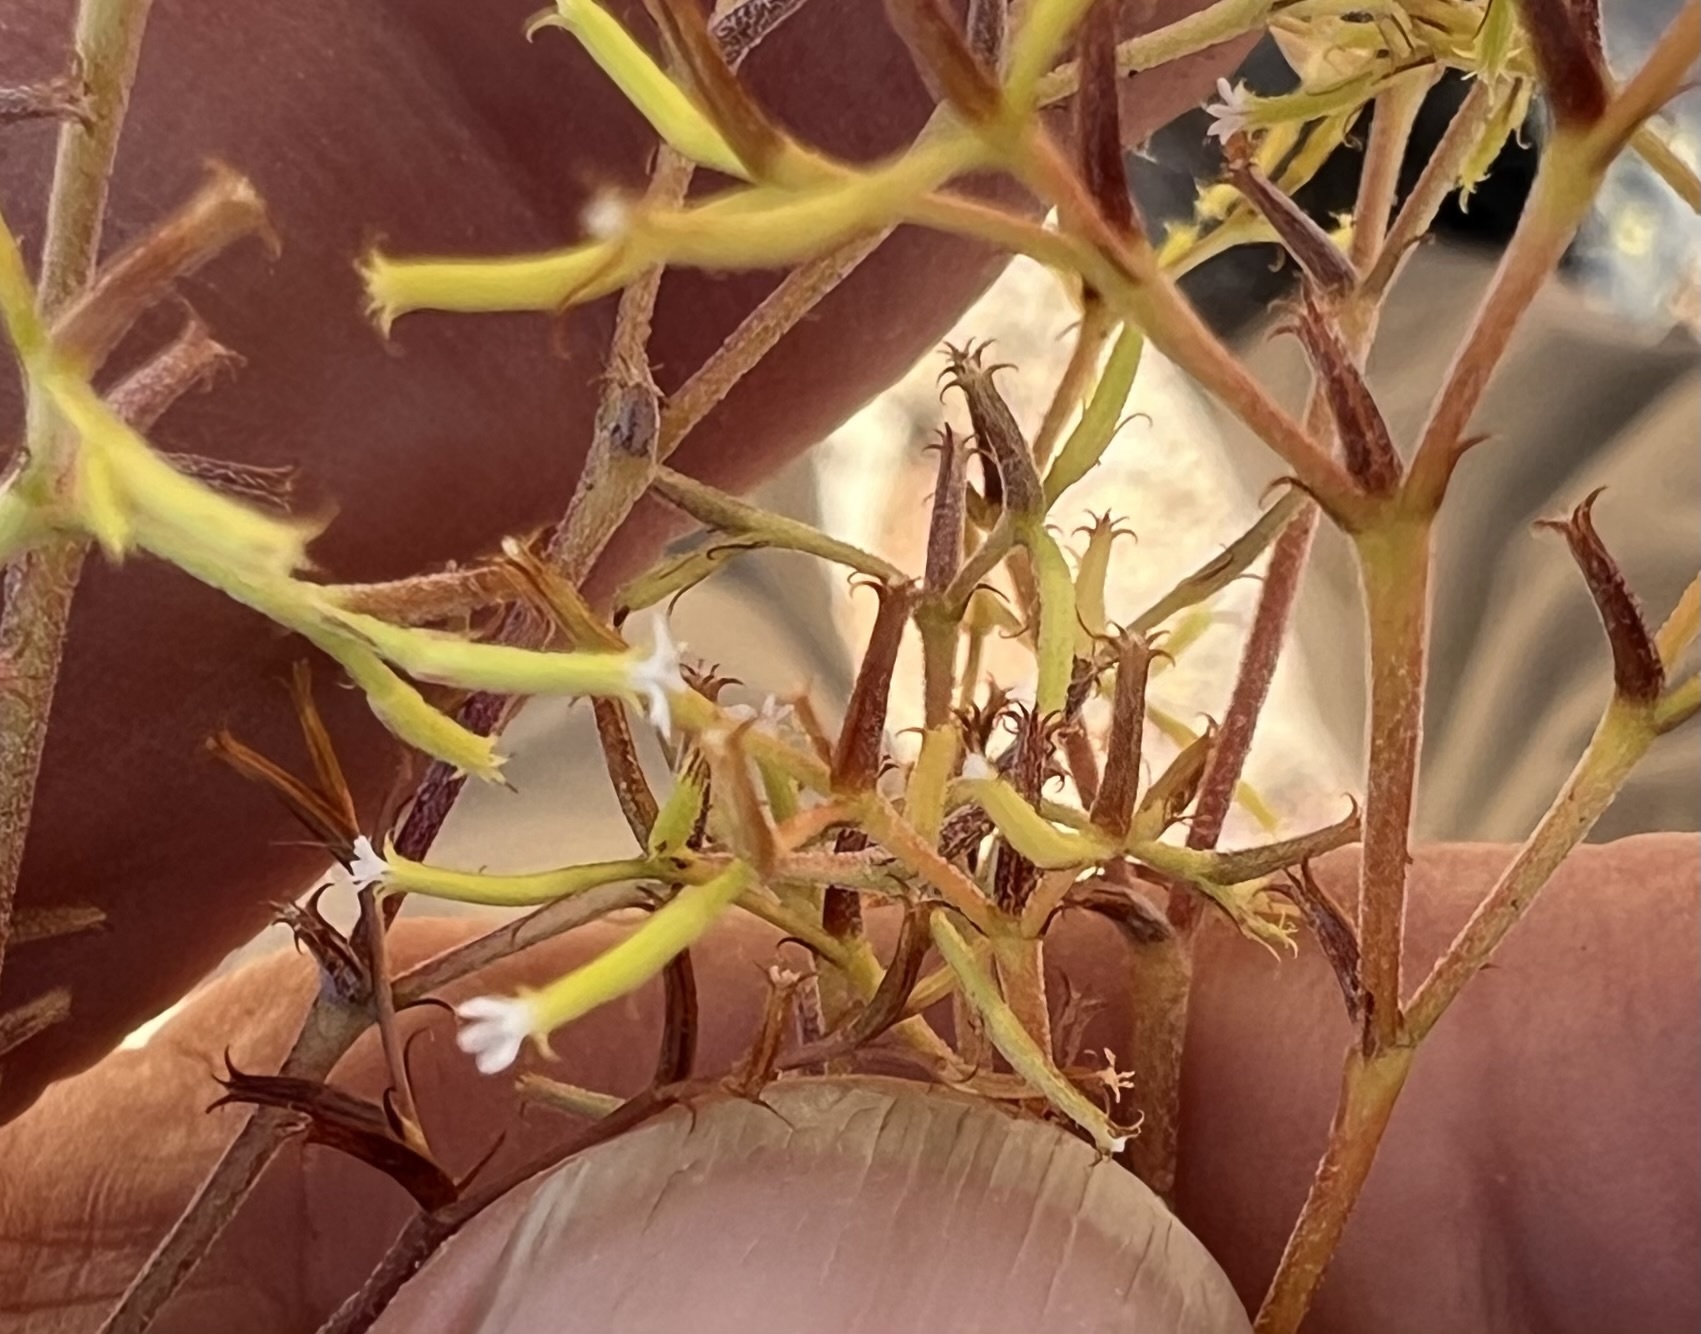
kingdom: Plantae
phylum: Tracheophyta
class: Magnoliopsida
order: Caryophyllales
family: Polygonaceae
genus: Chorizanthe
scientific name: Chorizanthe brevicornu
